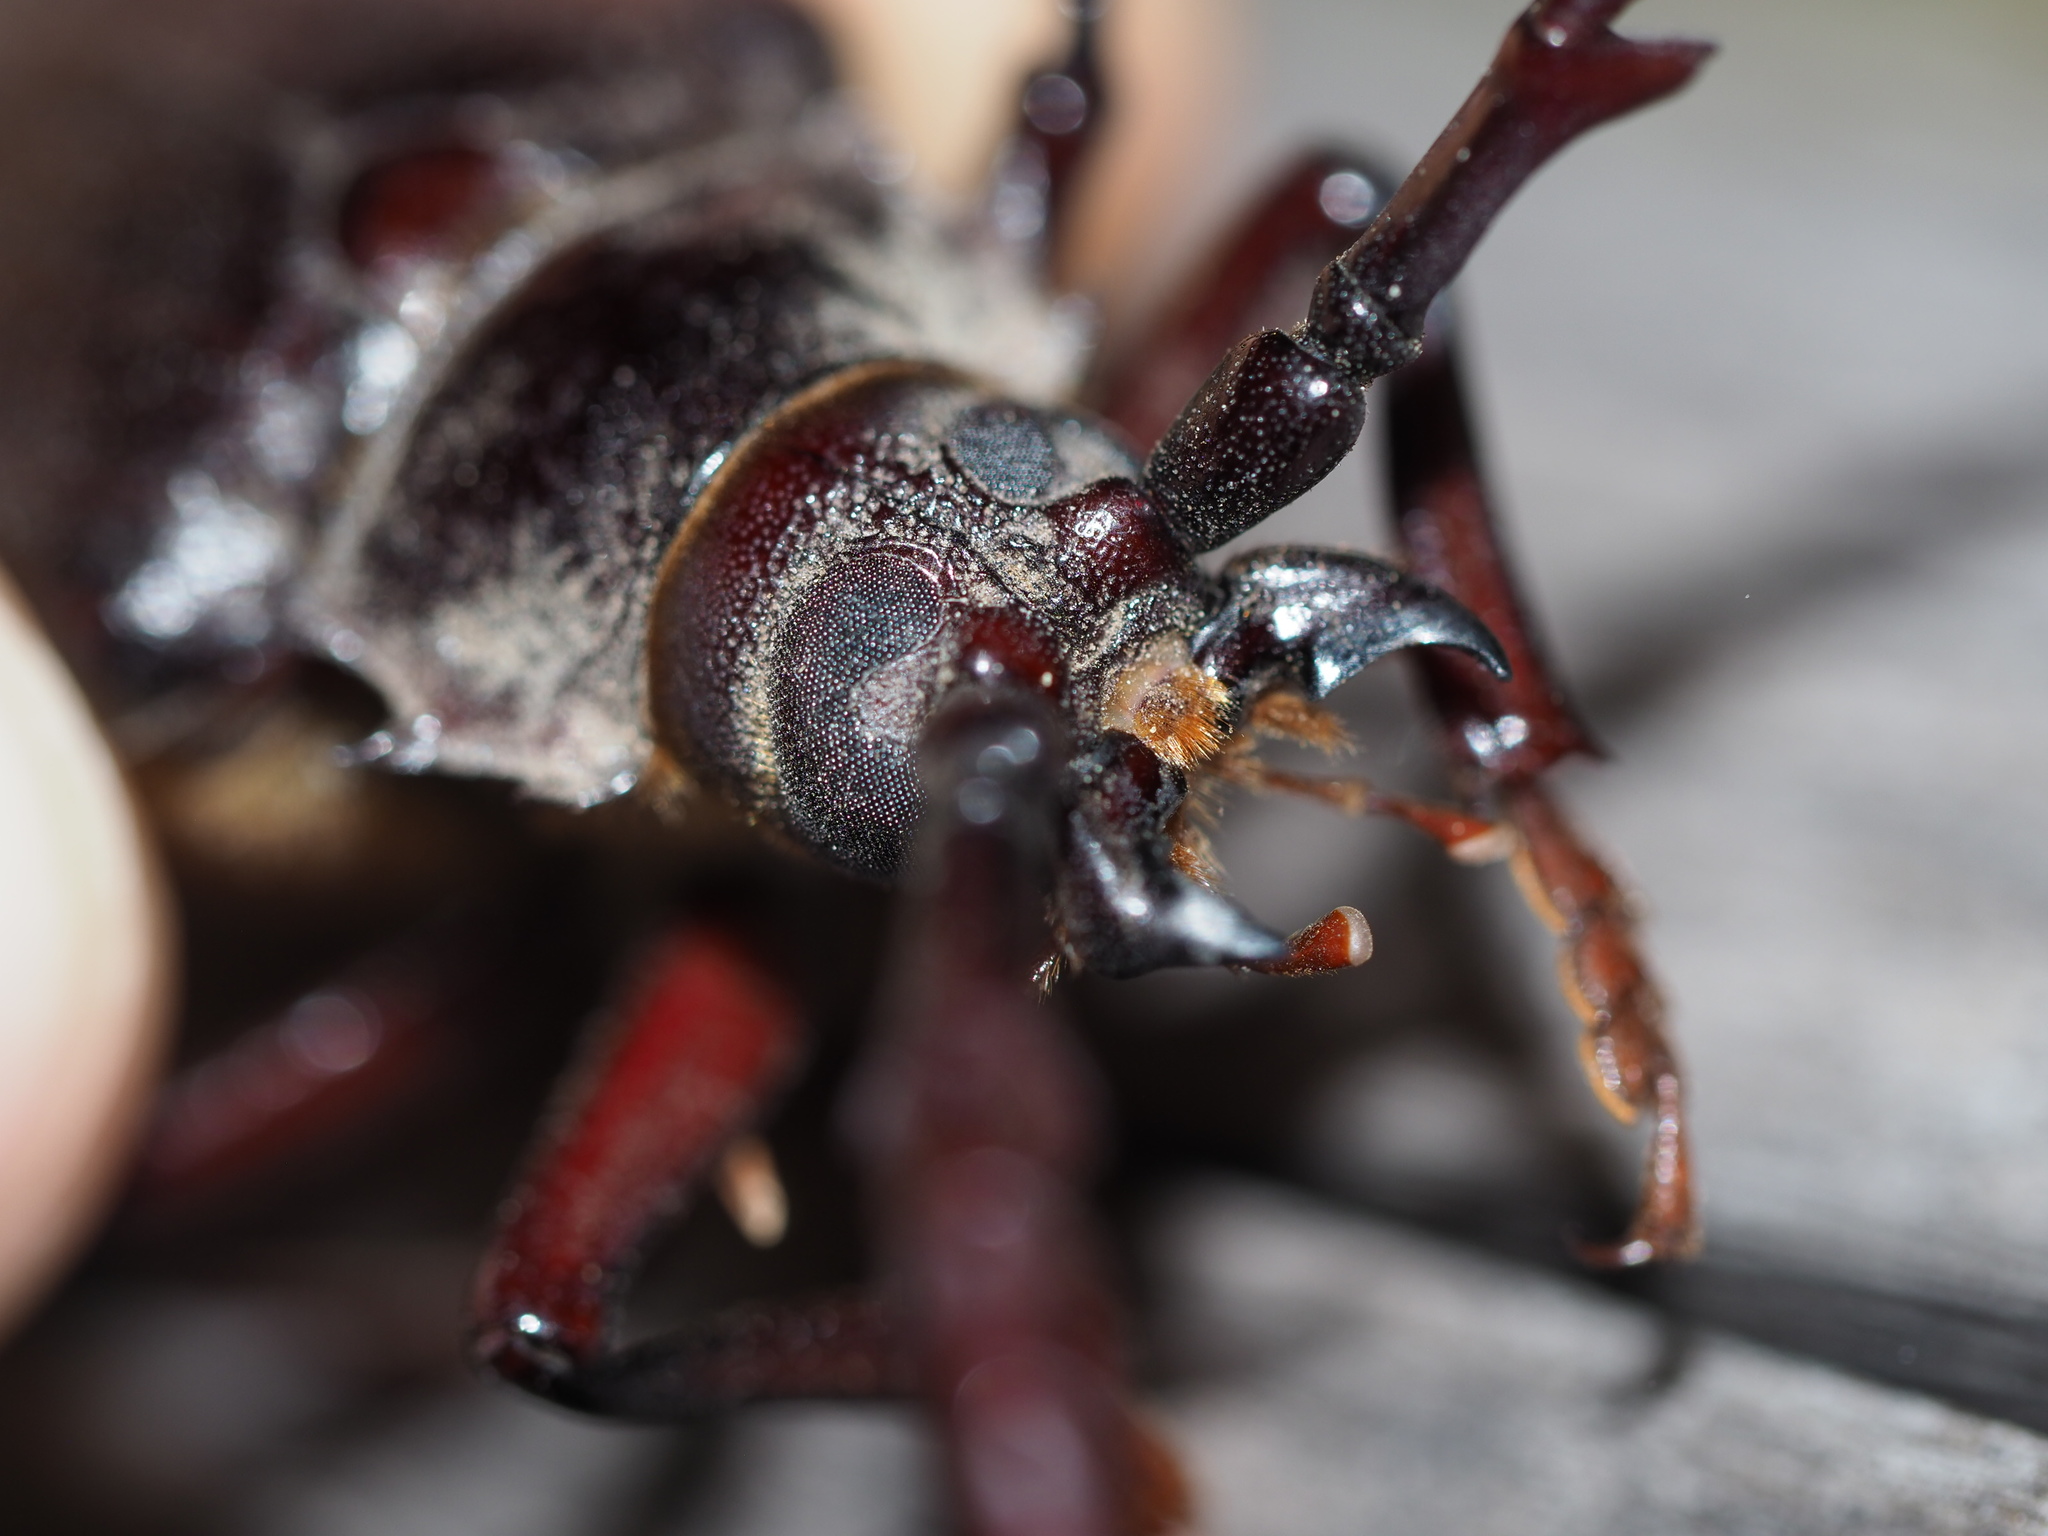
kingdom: Animalia
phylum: Arthropoda
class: Insecta
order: Coleoptera
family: Cerambycidae
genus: Prionus
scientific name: Prionus californicus
